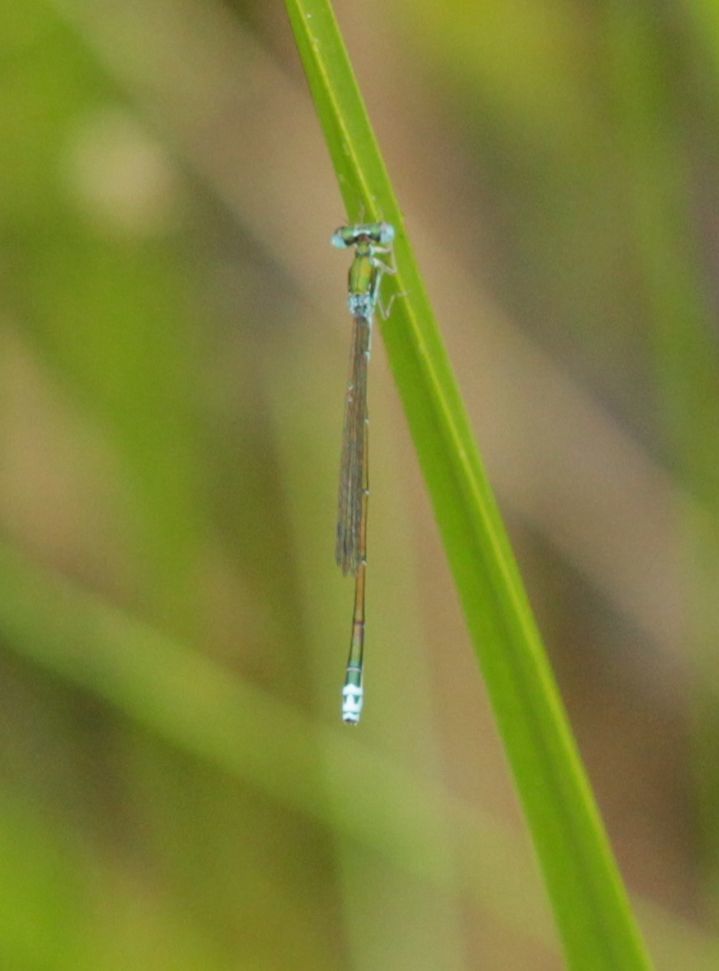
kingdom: Animalia
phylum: Arthropoda
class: Insecta
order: Odonata
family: Coenagrionidae
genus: Nehalennia
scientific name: Nehalennia irene
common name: Sedge sprite
